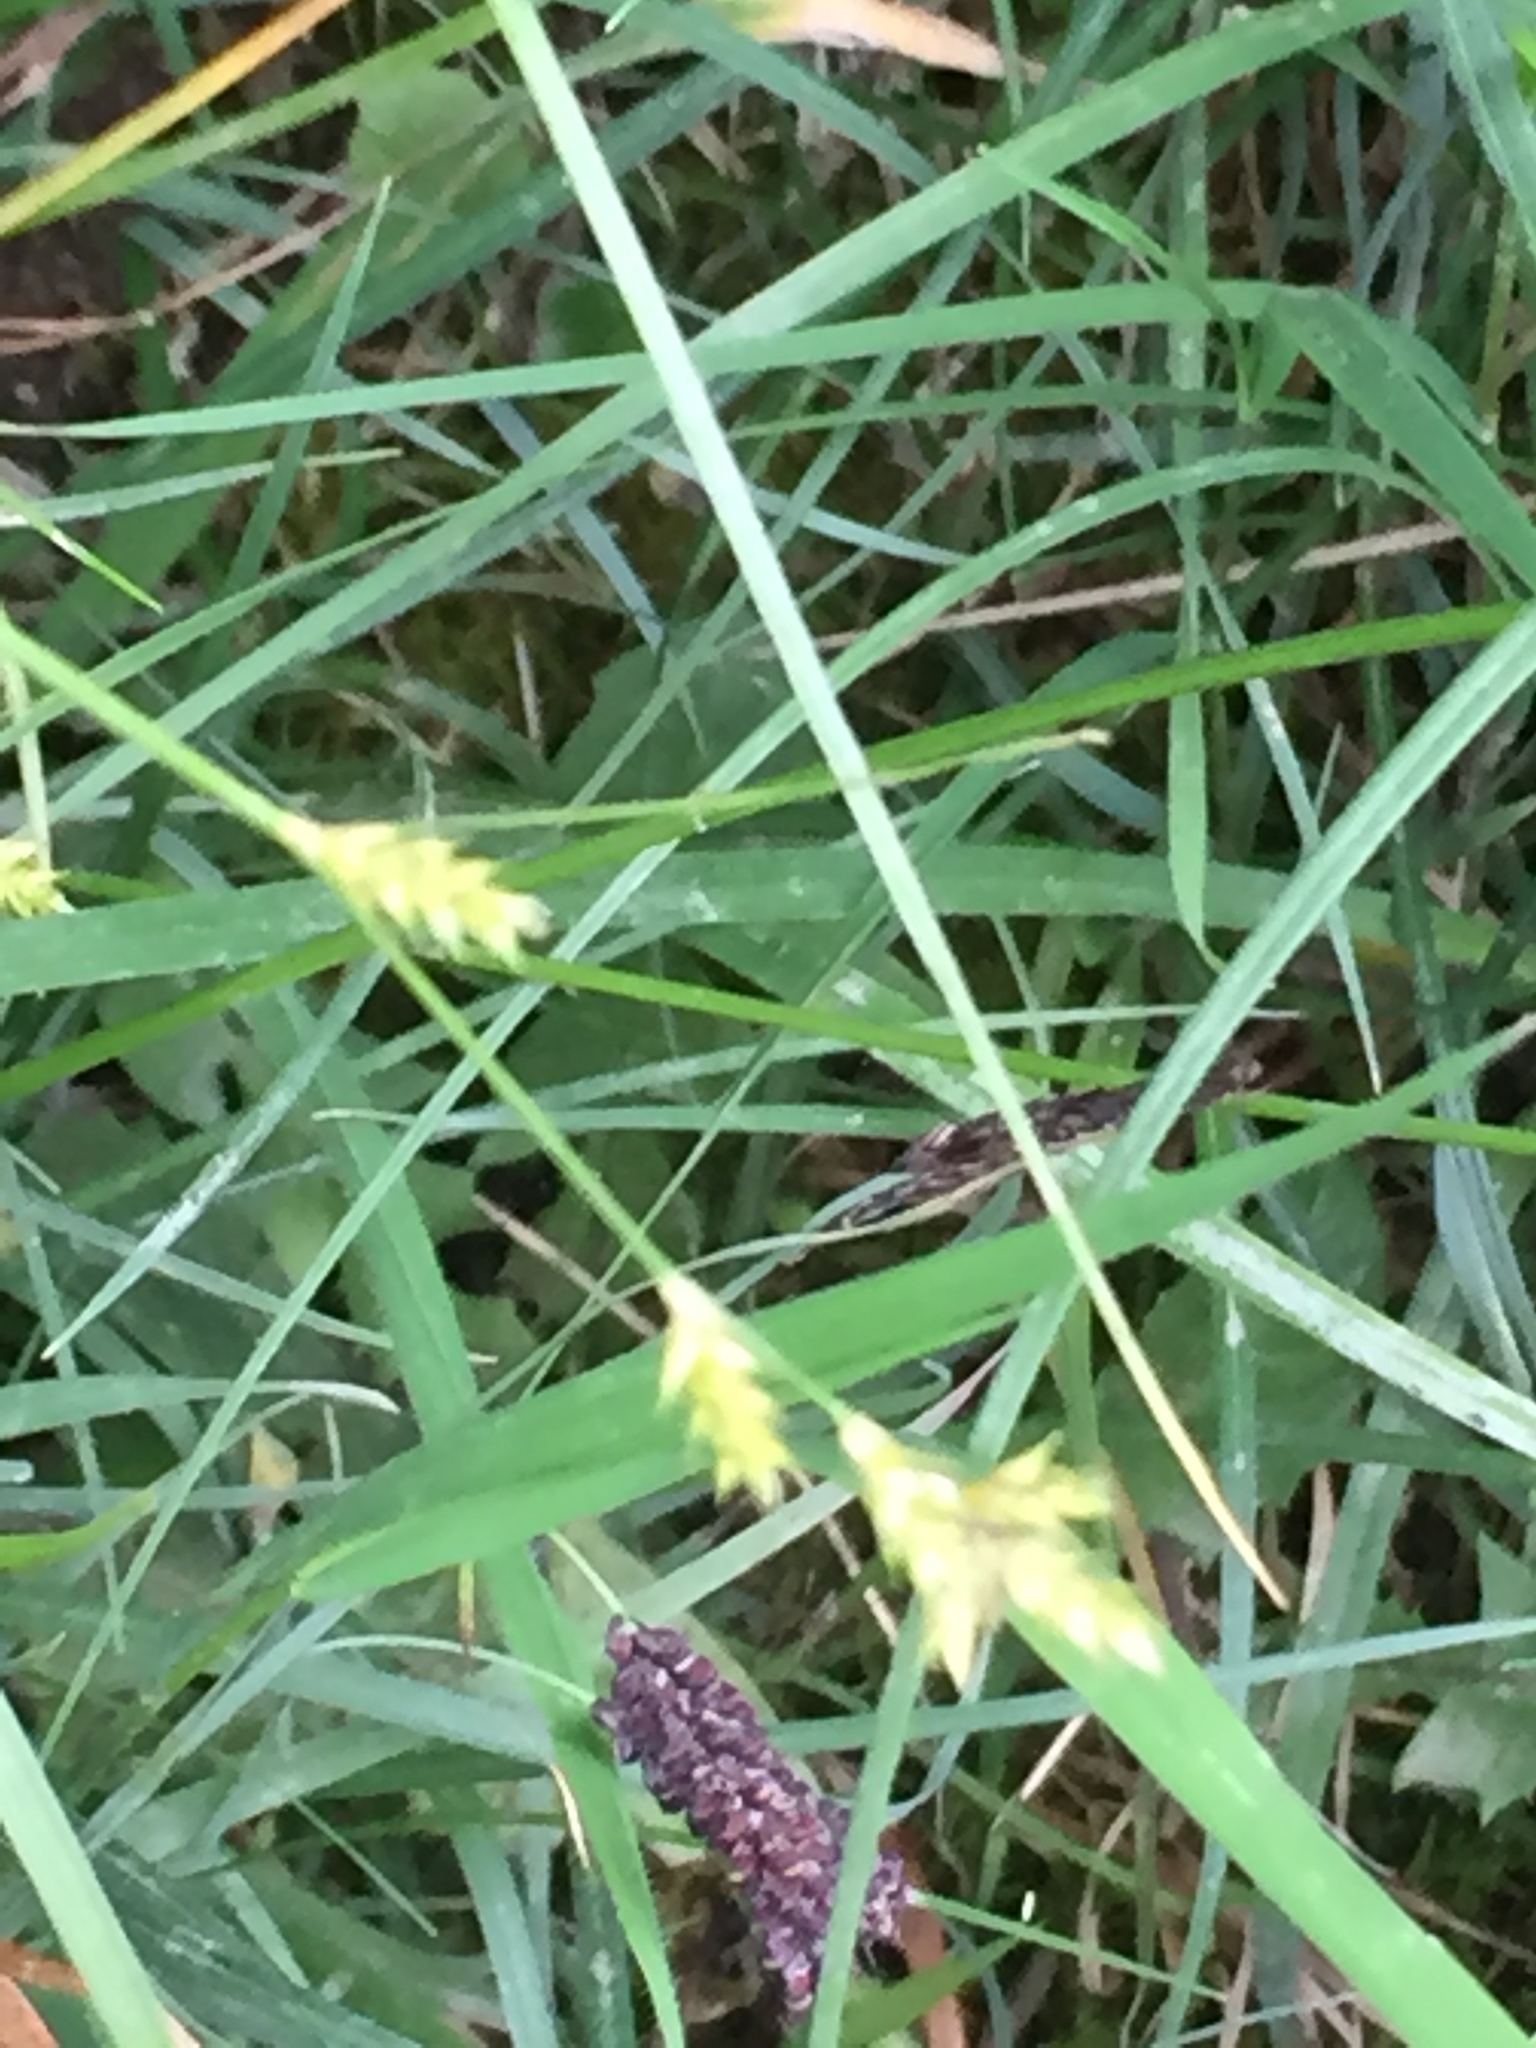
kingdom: Plantae
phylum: Tracheophyta
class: Liliopsida
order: Poales
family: Cyperaceae
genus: Carex
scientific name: Carex remota
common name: Remote sedge
